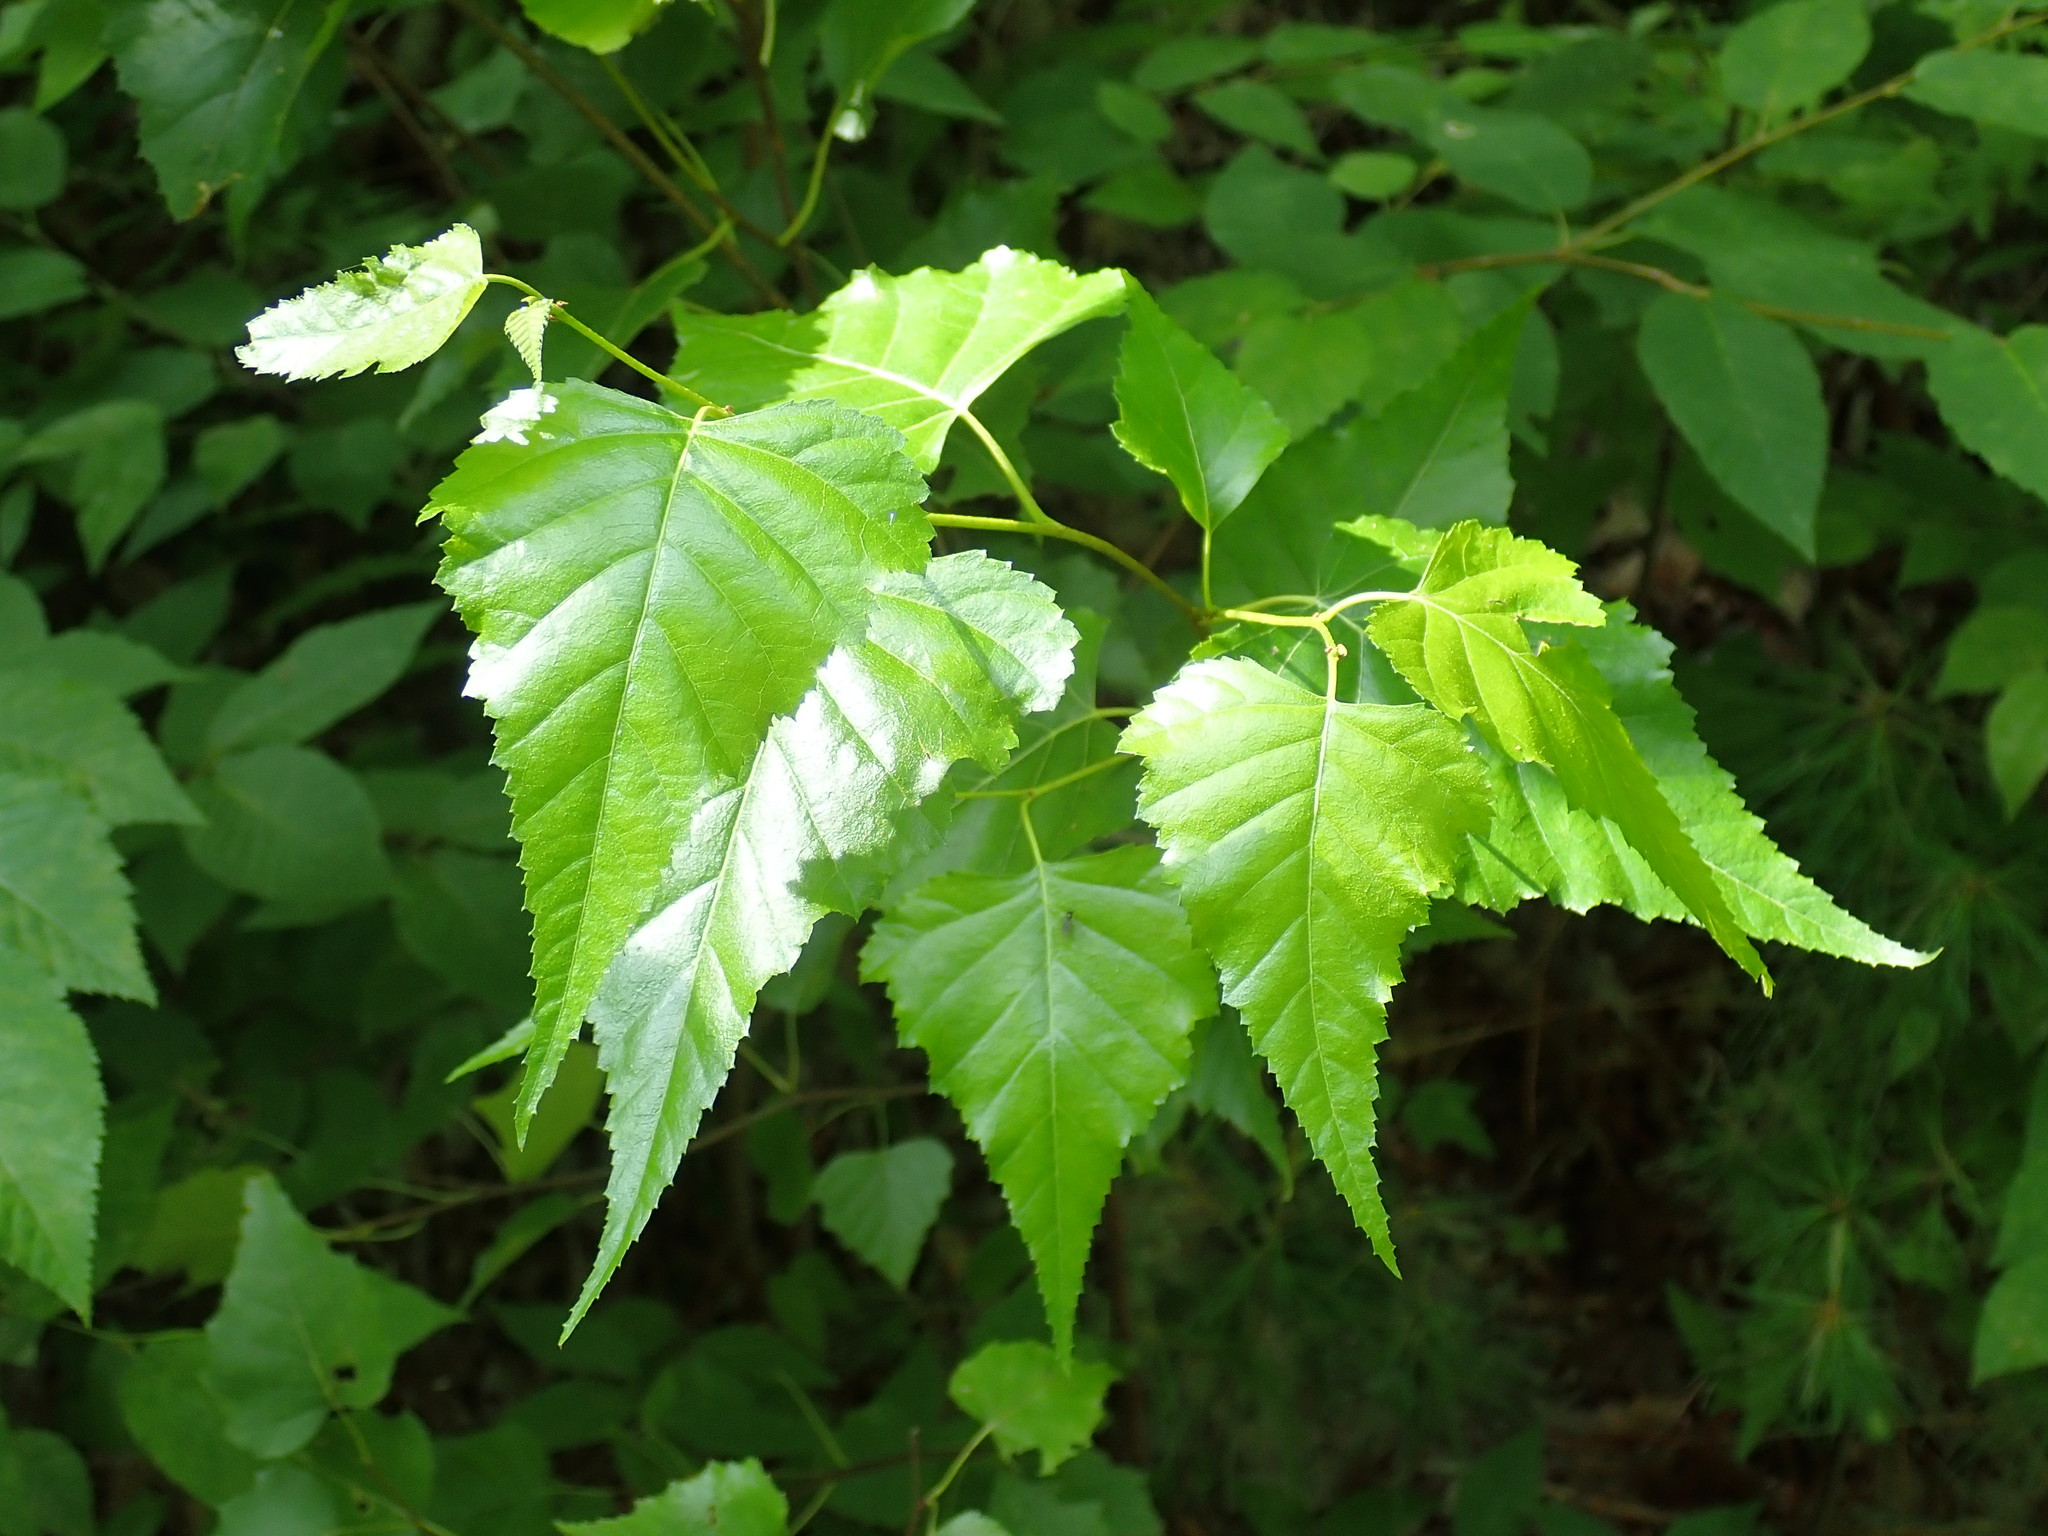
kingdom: Plantae
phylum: Tracheophyta
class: Magnoliopsida
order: Fagales
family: Betulaceae
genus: Betula
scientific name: Betula populifolia
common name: Fire birch
